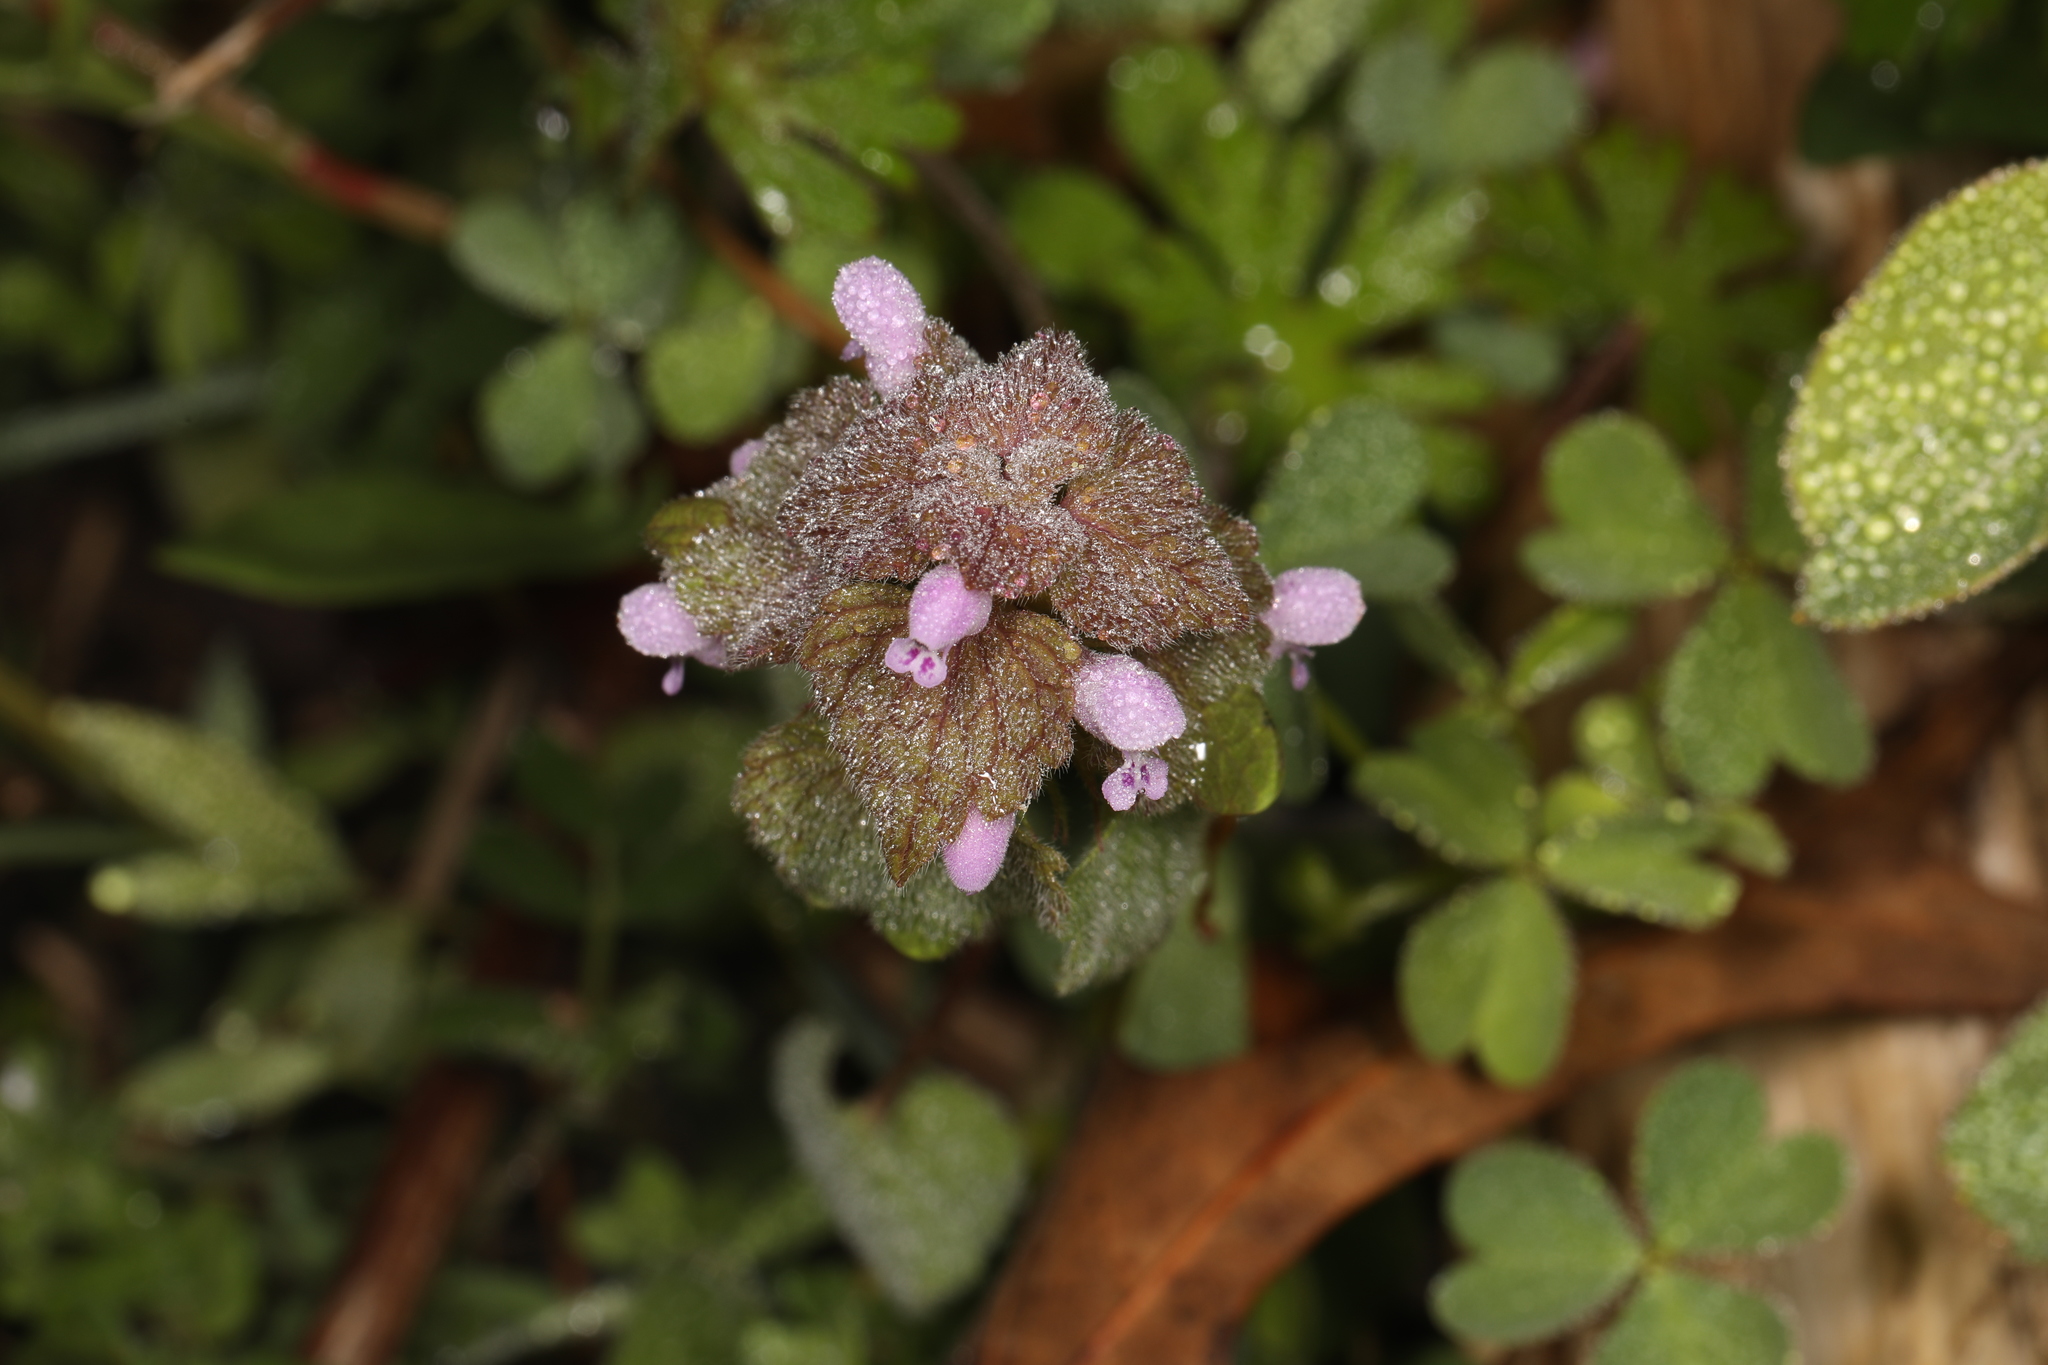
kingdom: Plantae
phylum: Tracheophyta
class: Magnoliopsida
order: Lamiales
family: Lamiaceae
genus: Lamium
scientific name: Lamium purpureum
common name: Red dead-nettle
